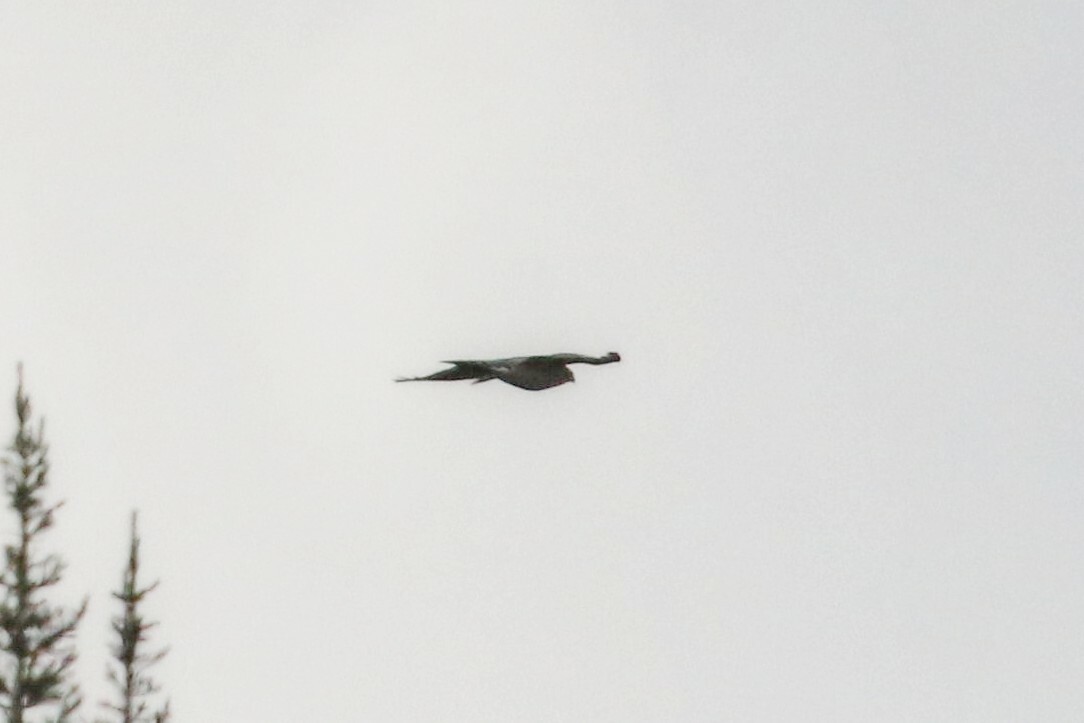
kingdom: Animalia
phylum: Chordata
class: Aves
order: Accipitriformes
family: Accipitridae
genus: Accipiter
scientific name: Accipiter nisus
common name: Eurasian sparrowhawk
